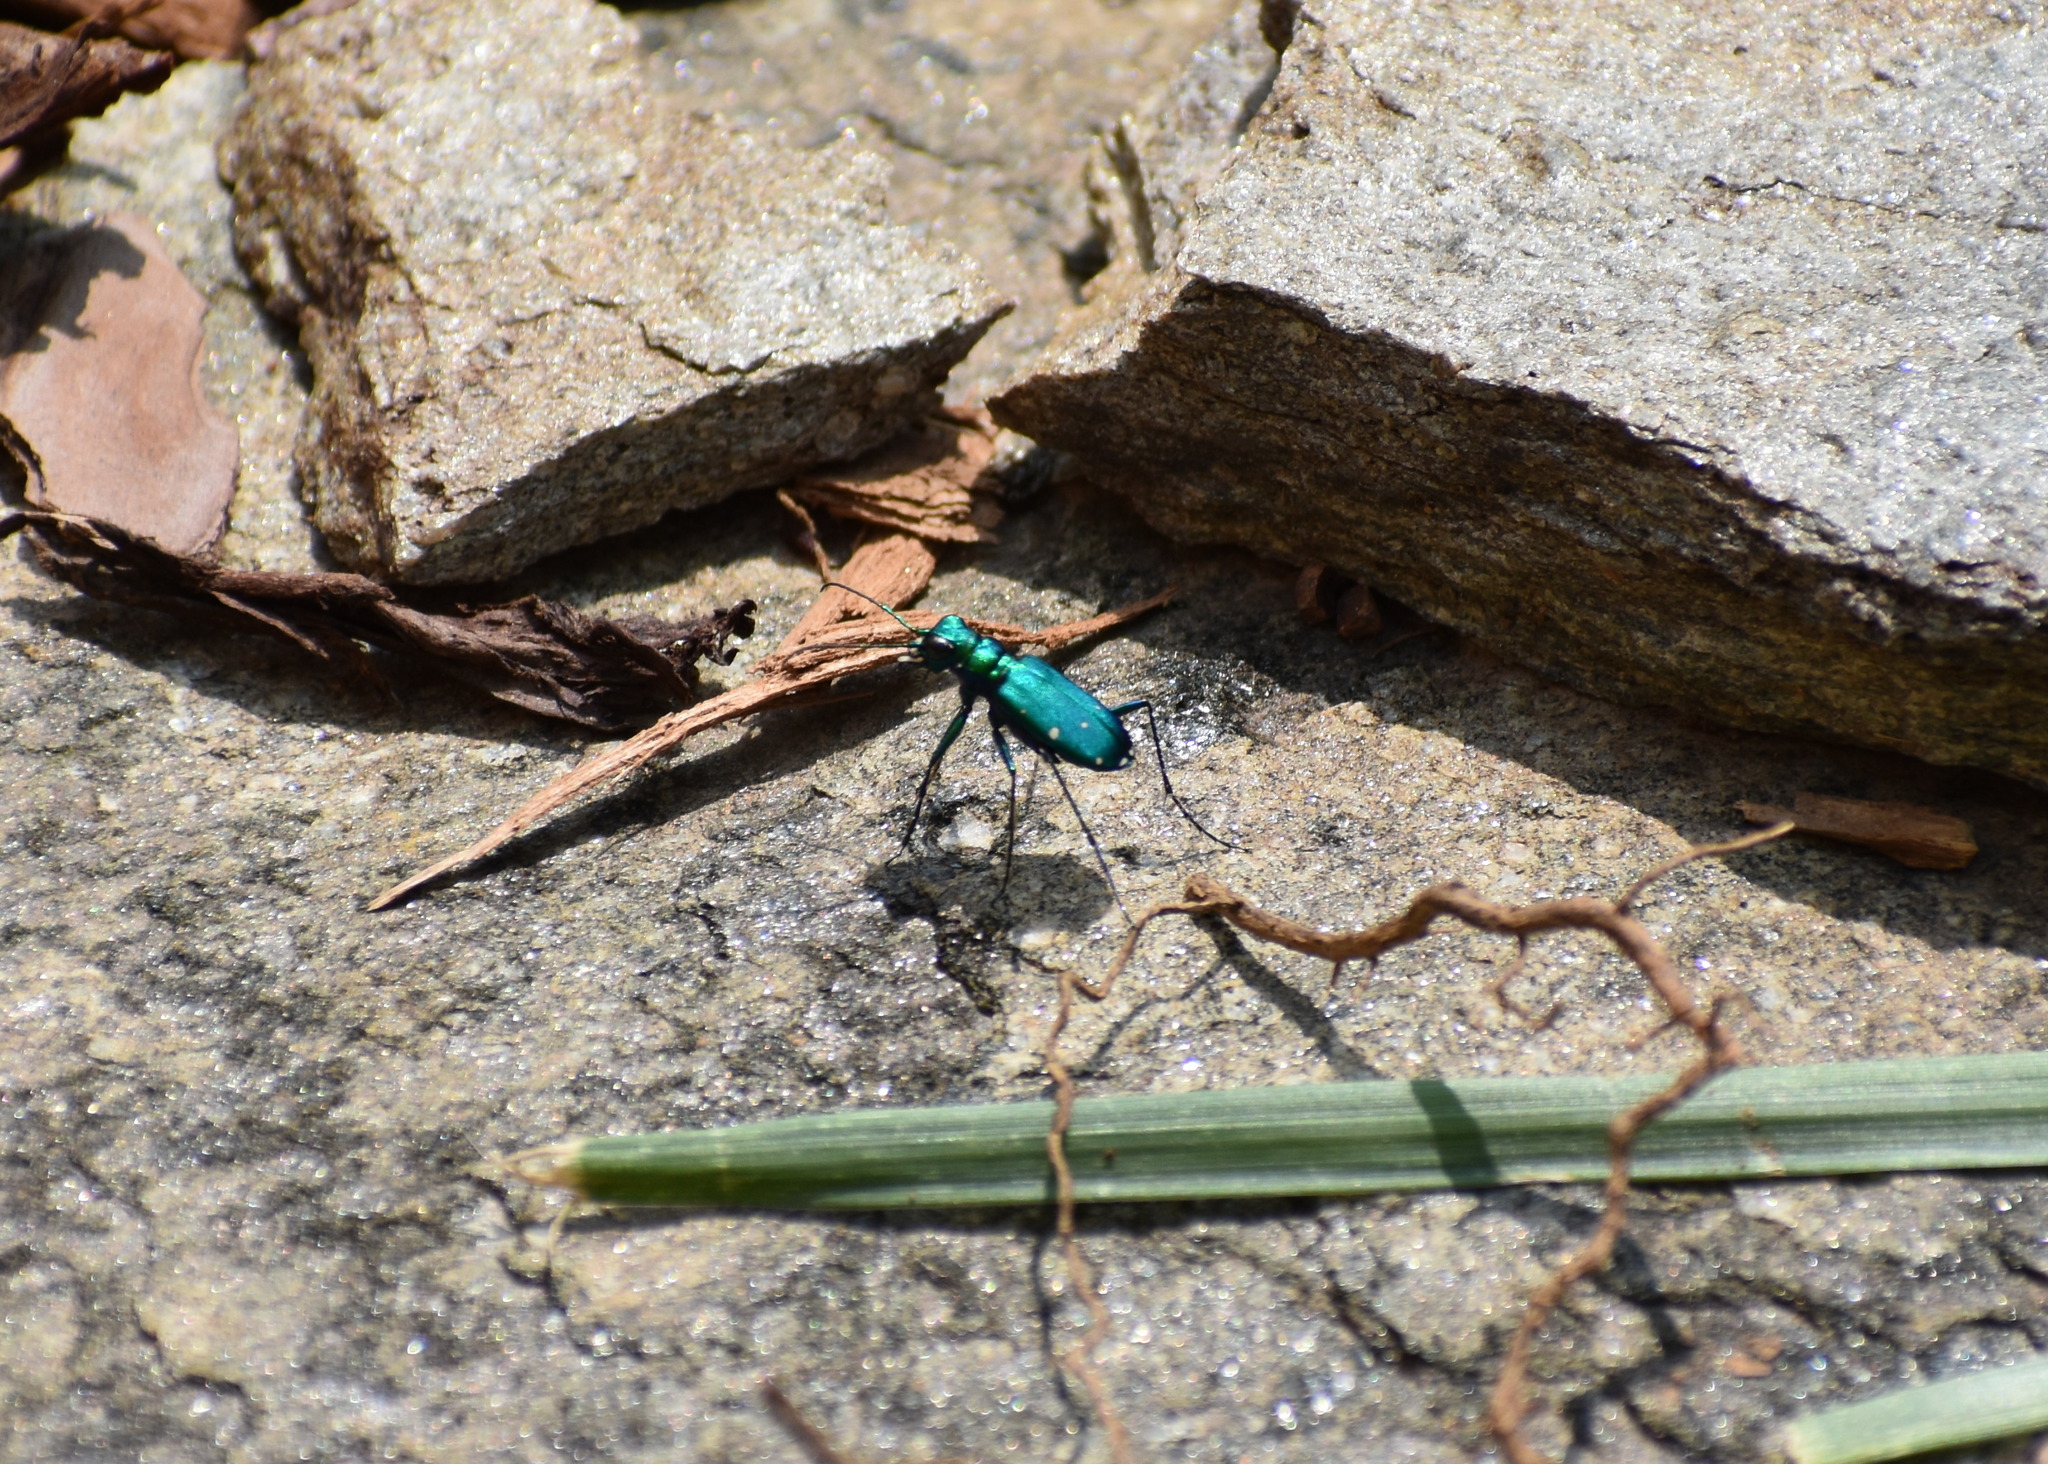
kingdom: Animalia
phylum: Arthropoda
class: Insecta
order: Coleoptera
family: Carabidae
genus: Cicindela
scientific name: Cicindela sexguttata
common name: Six-spotted tiger beetle
